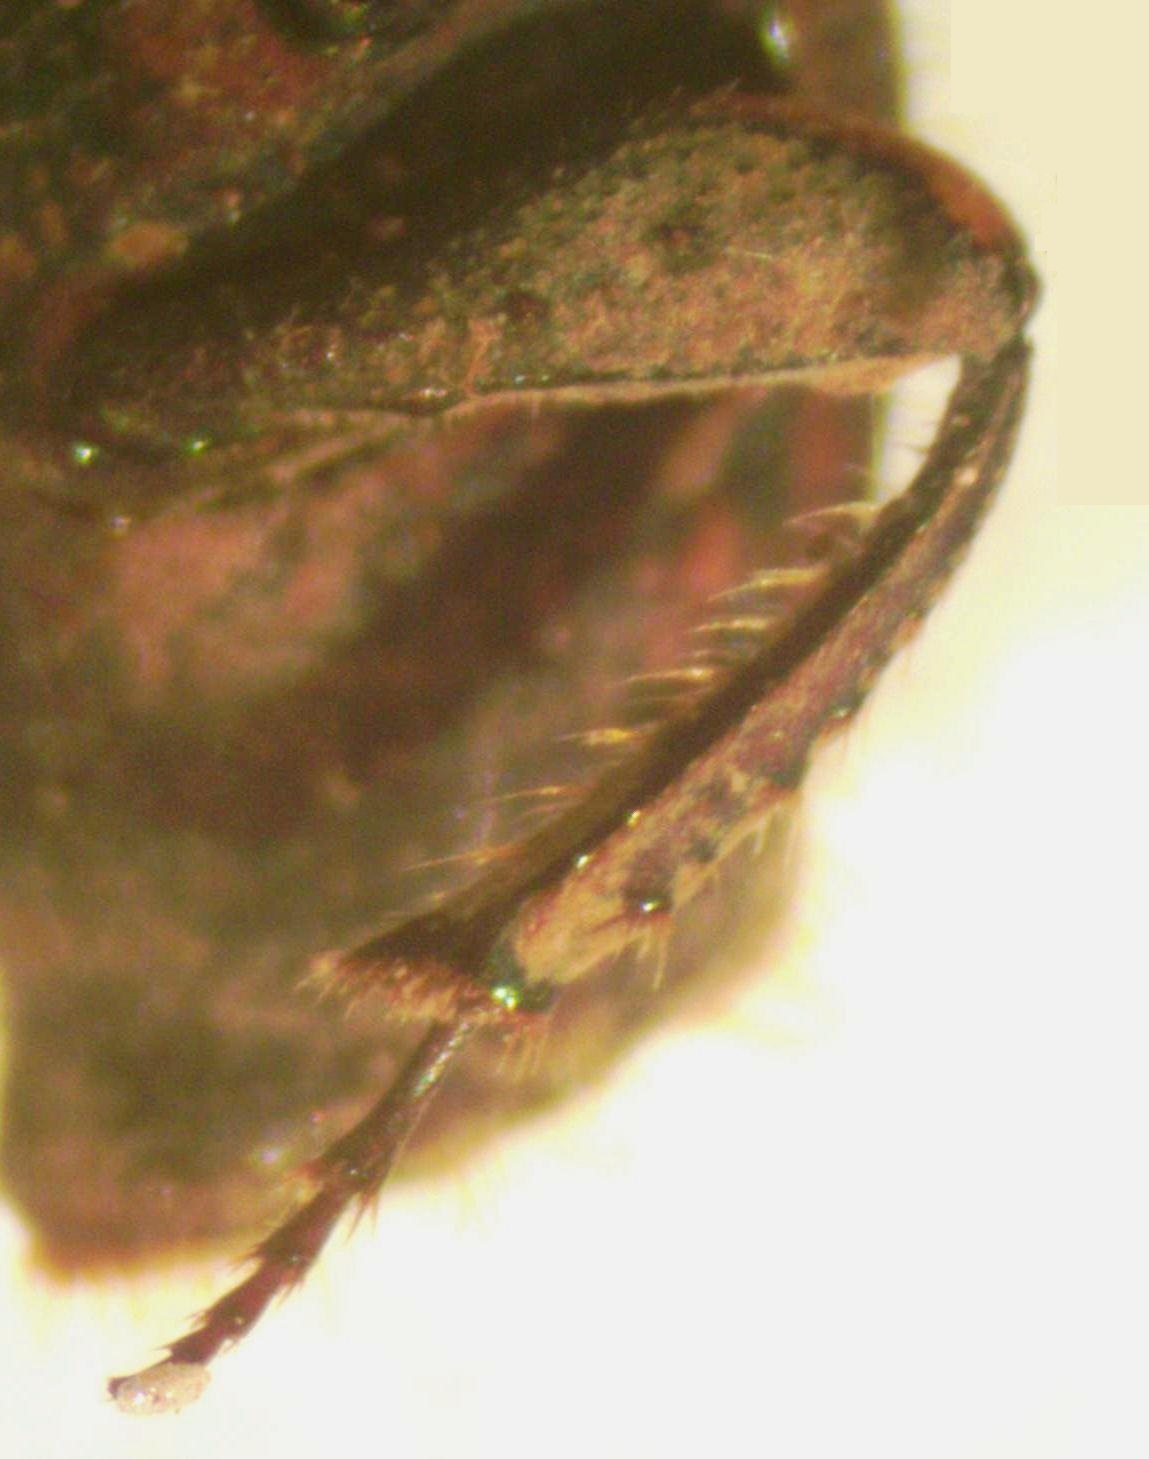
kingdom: Animalia
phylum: Arthropoda
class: Insecta
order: Coleoptera
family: Scarabaeidae
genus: Eurysternus
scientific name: Eurysternus plebejus
